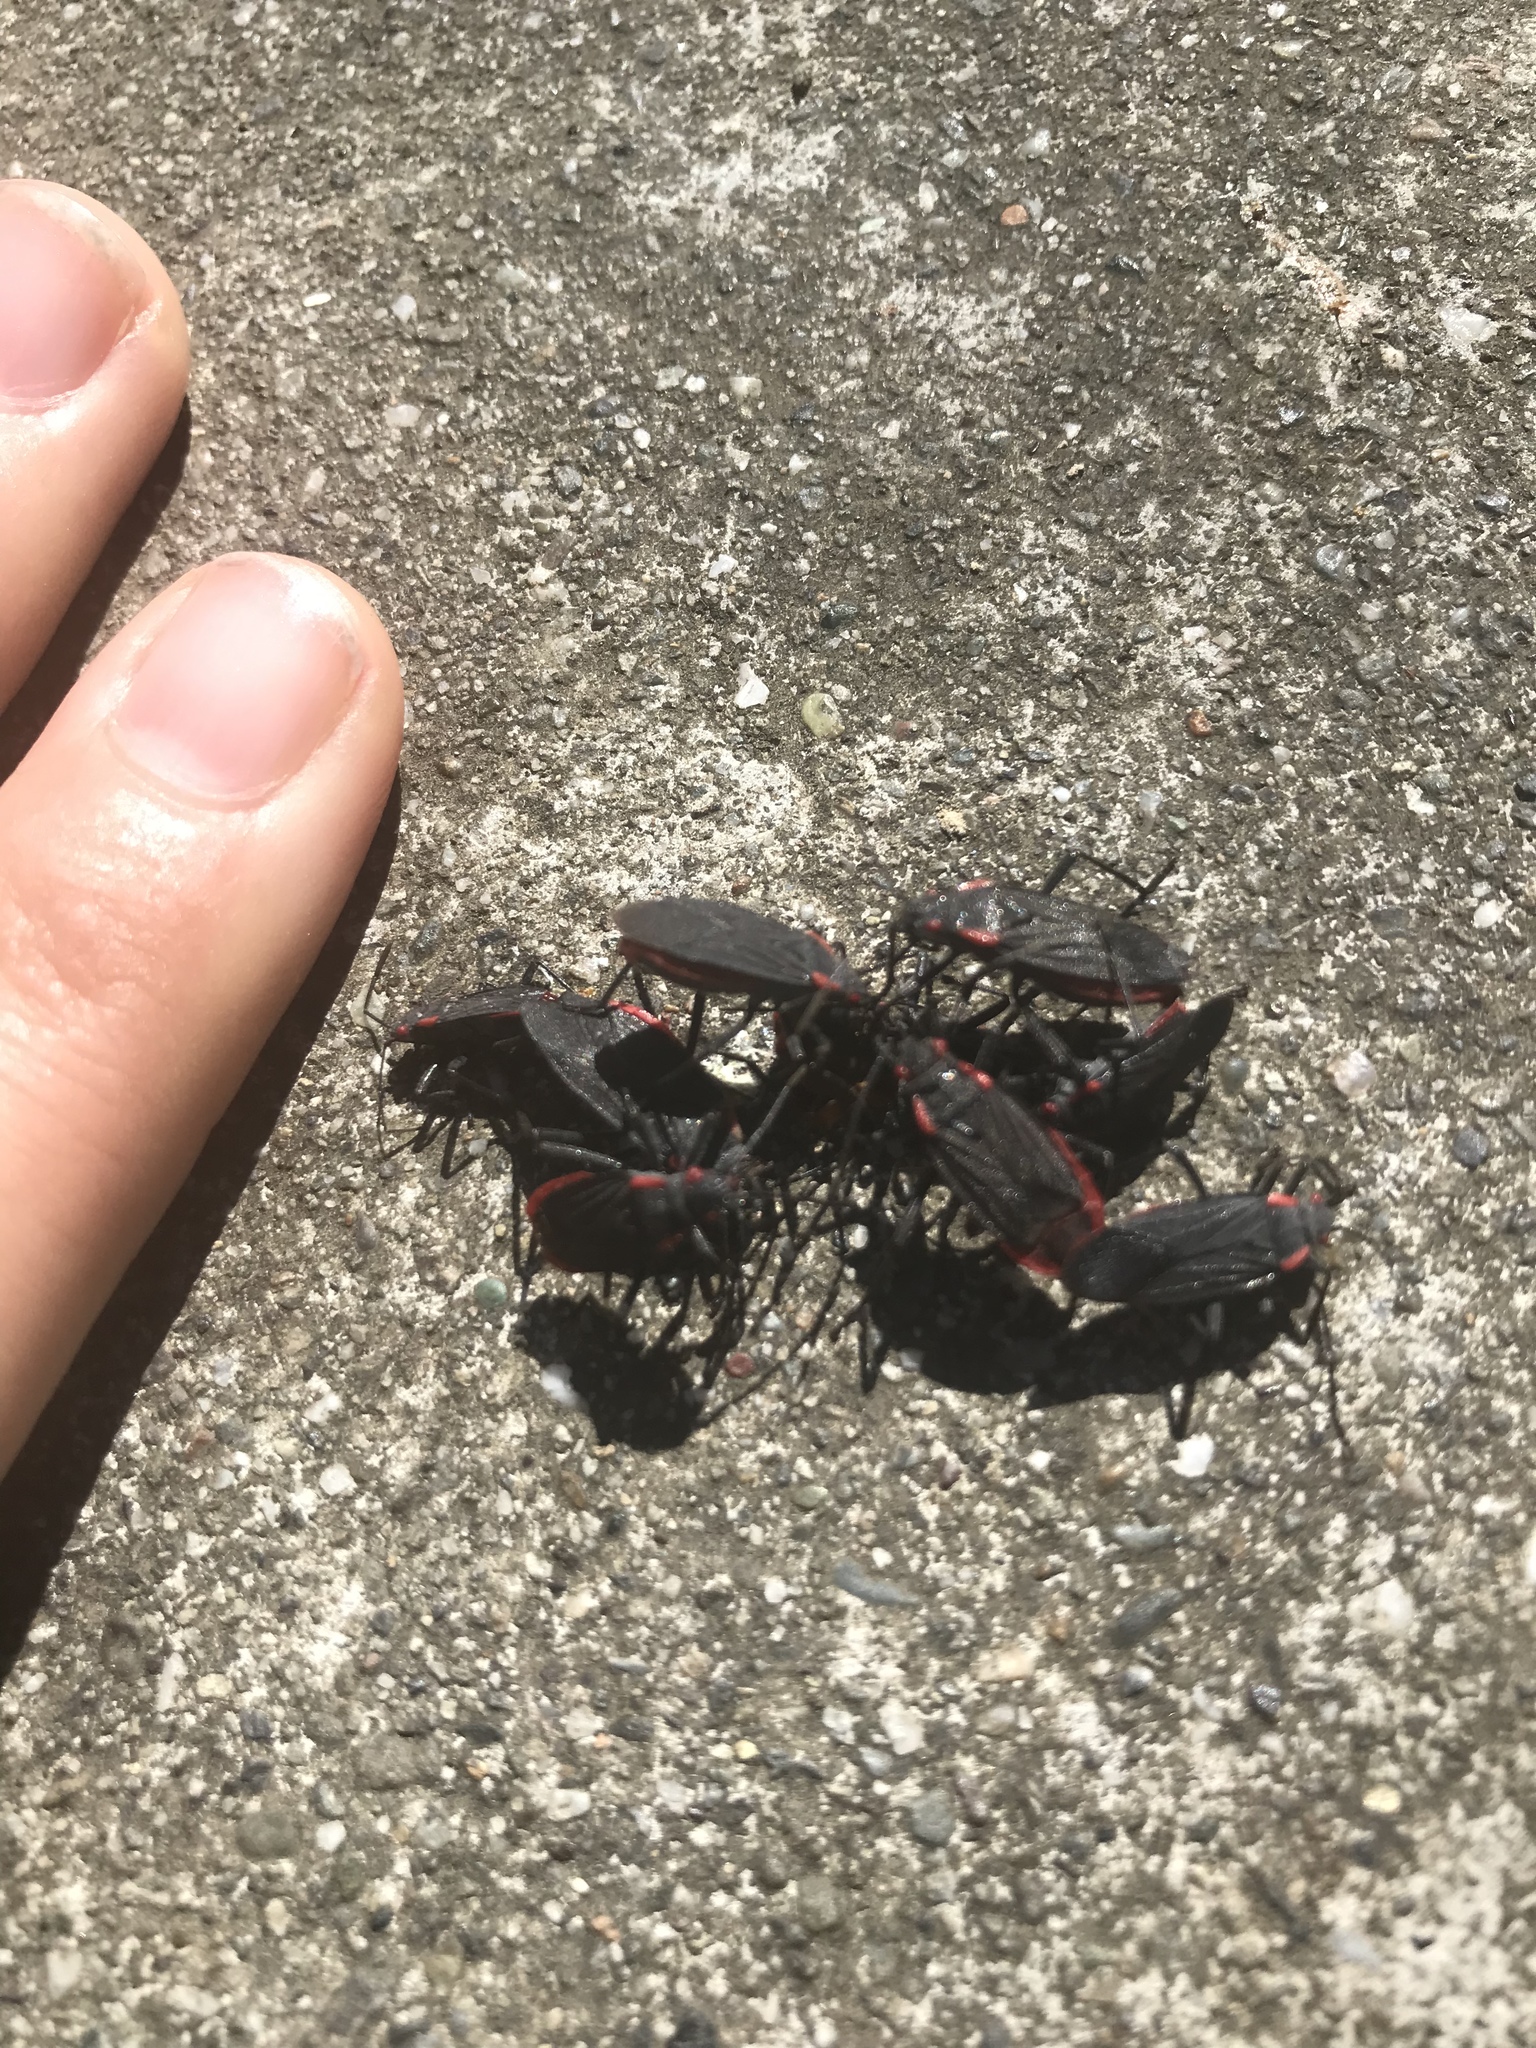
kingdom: Animalia
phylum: Arthropoda
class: Insecta
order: Hemiptera
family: Rhopalidae
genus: Jadera
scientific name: Jadera haematoloma
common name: Red-shouldered bug
